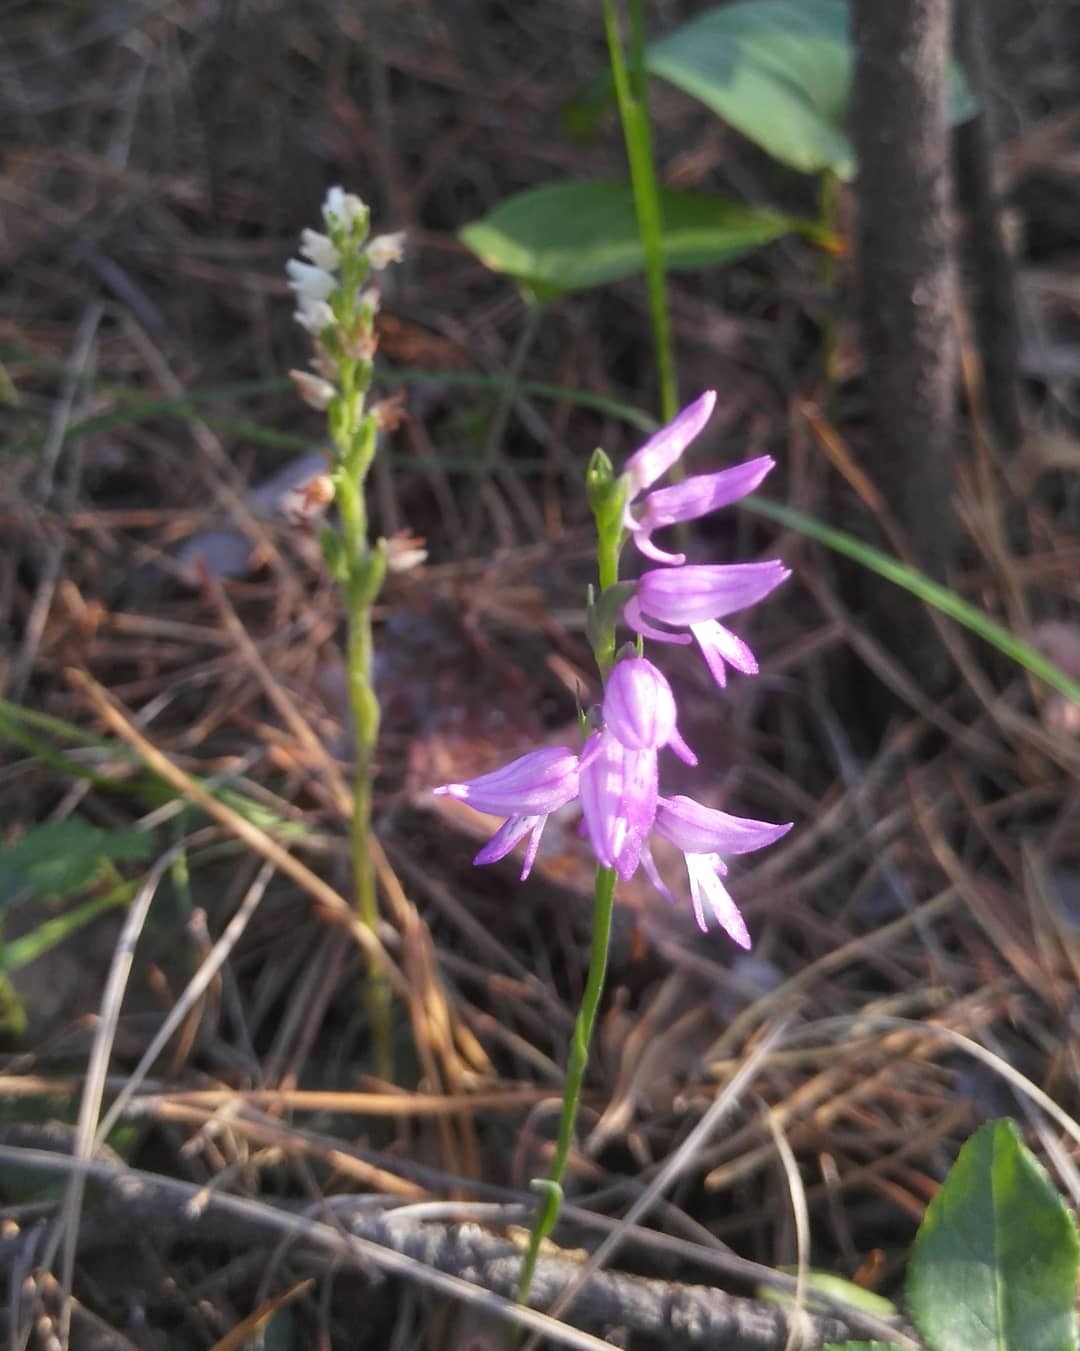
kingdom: Plantae
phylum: Tracheophyta
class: Liliopsida
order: Asparagales
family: Orchidaceae
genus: Hemipilia
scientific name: Hemipilia cucullata
